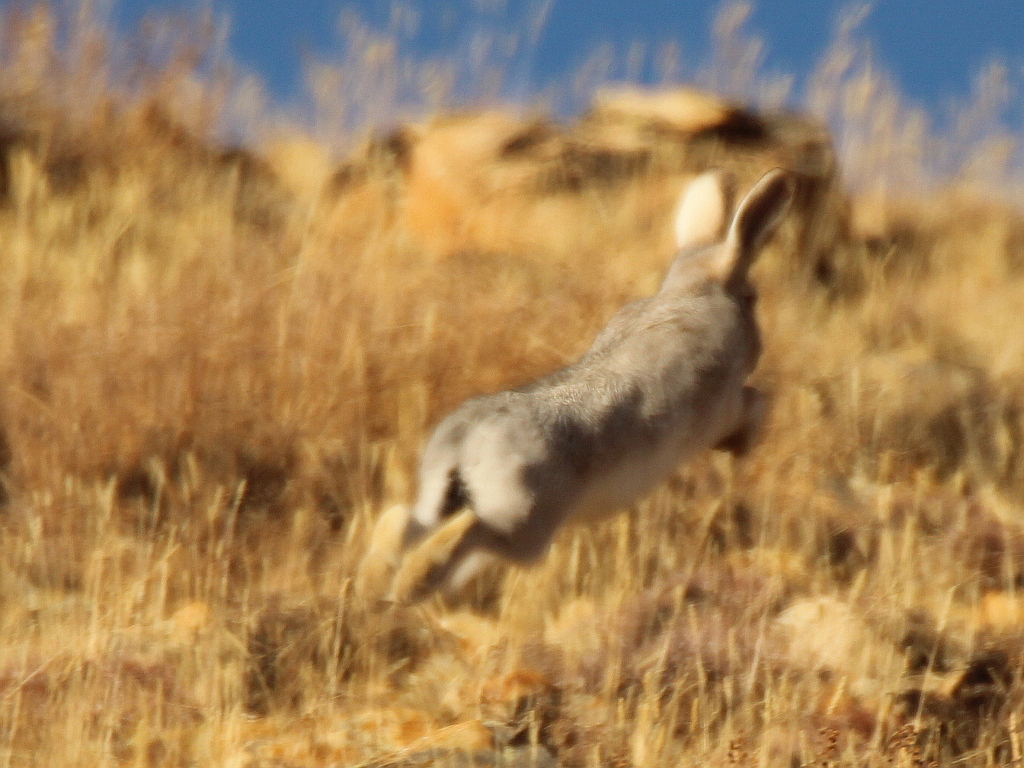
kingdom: Animalia
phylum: Chordata
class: Mammalia
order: Lagomorpha
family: Leporidae
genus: Lepus
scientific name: Lepus tolai
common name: Tolai hare
